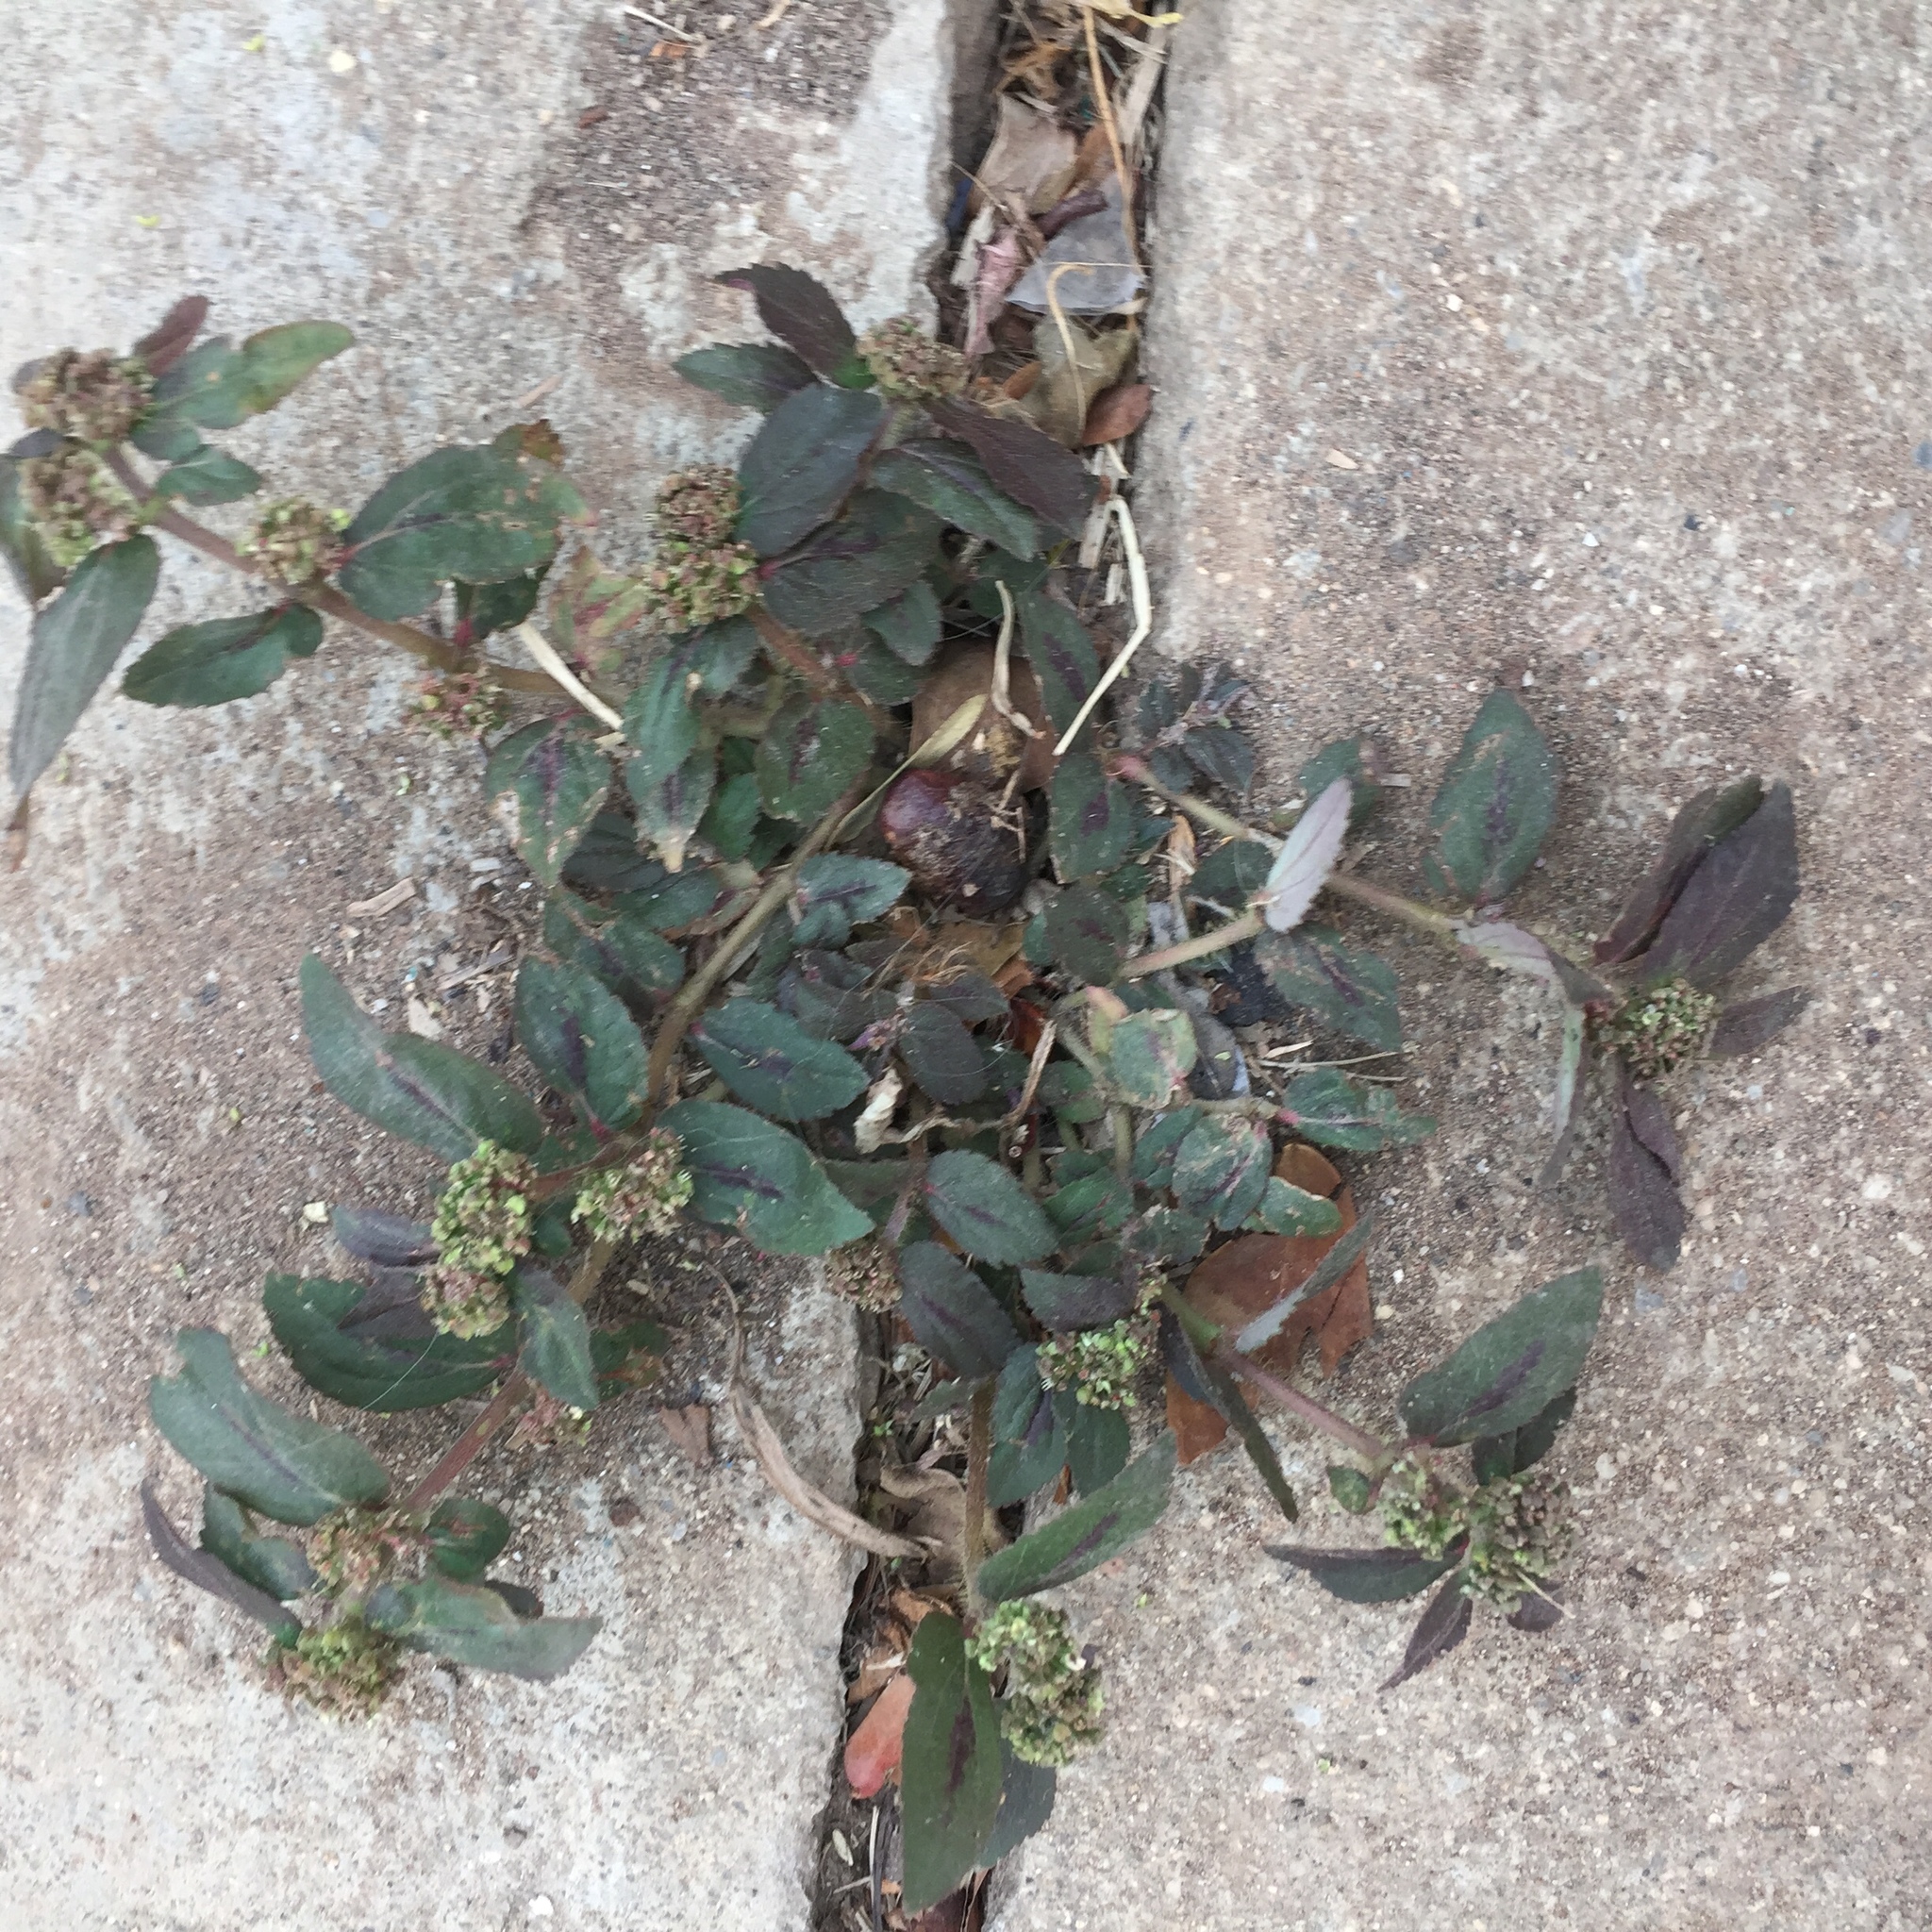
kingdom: Plantae
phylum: Tracheophyta
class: Magnoliopsida
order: Malpighiales
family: Euphorbiaceae
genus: Euphorbia
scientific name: Euphorbia hirta
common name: Pillpod sandmat
